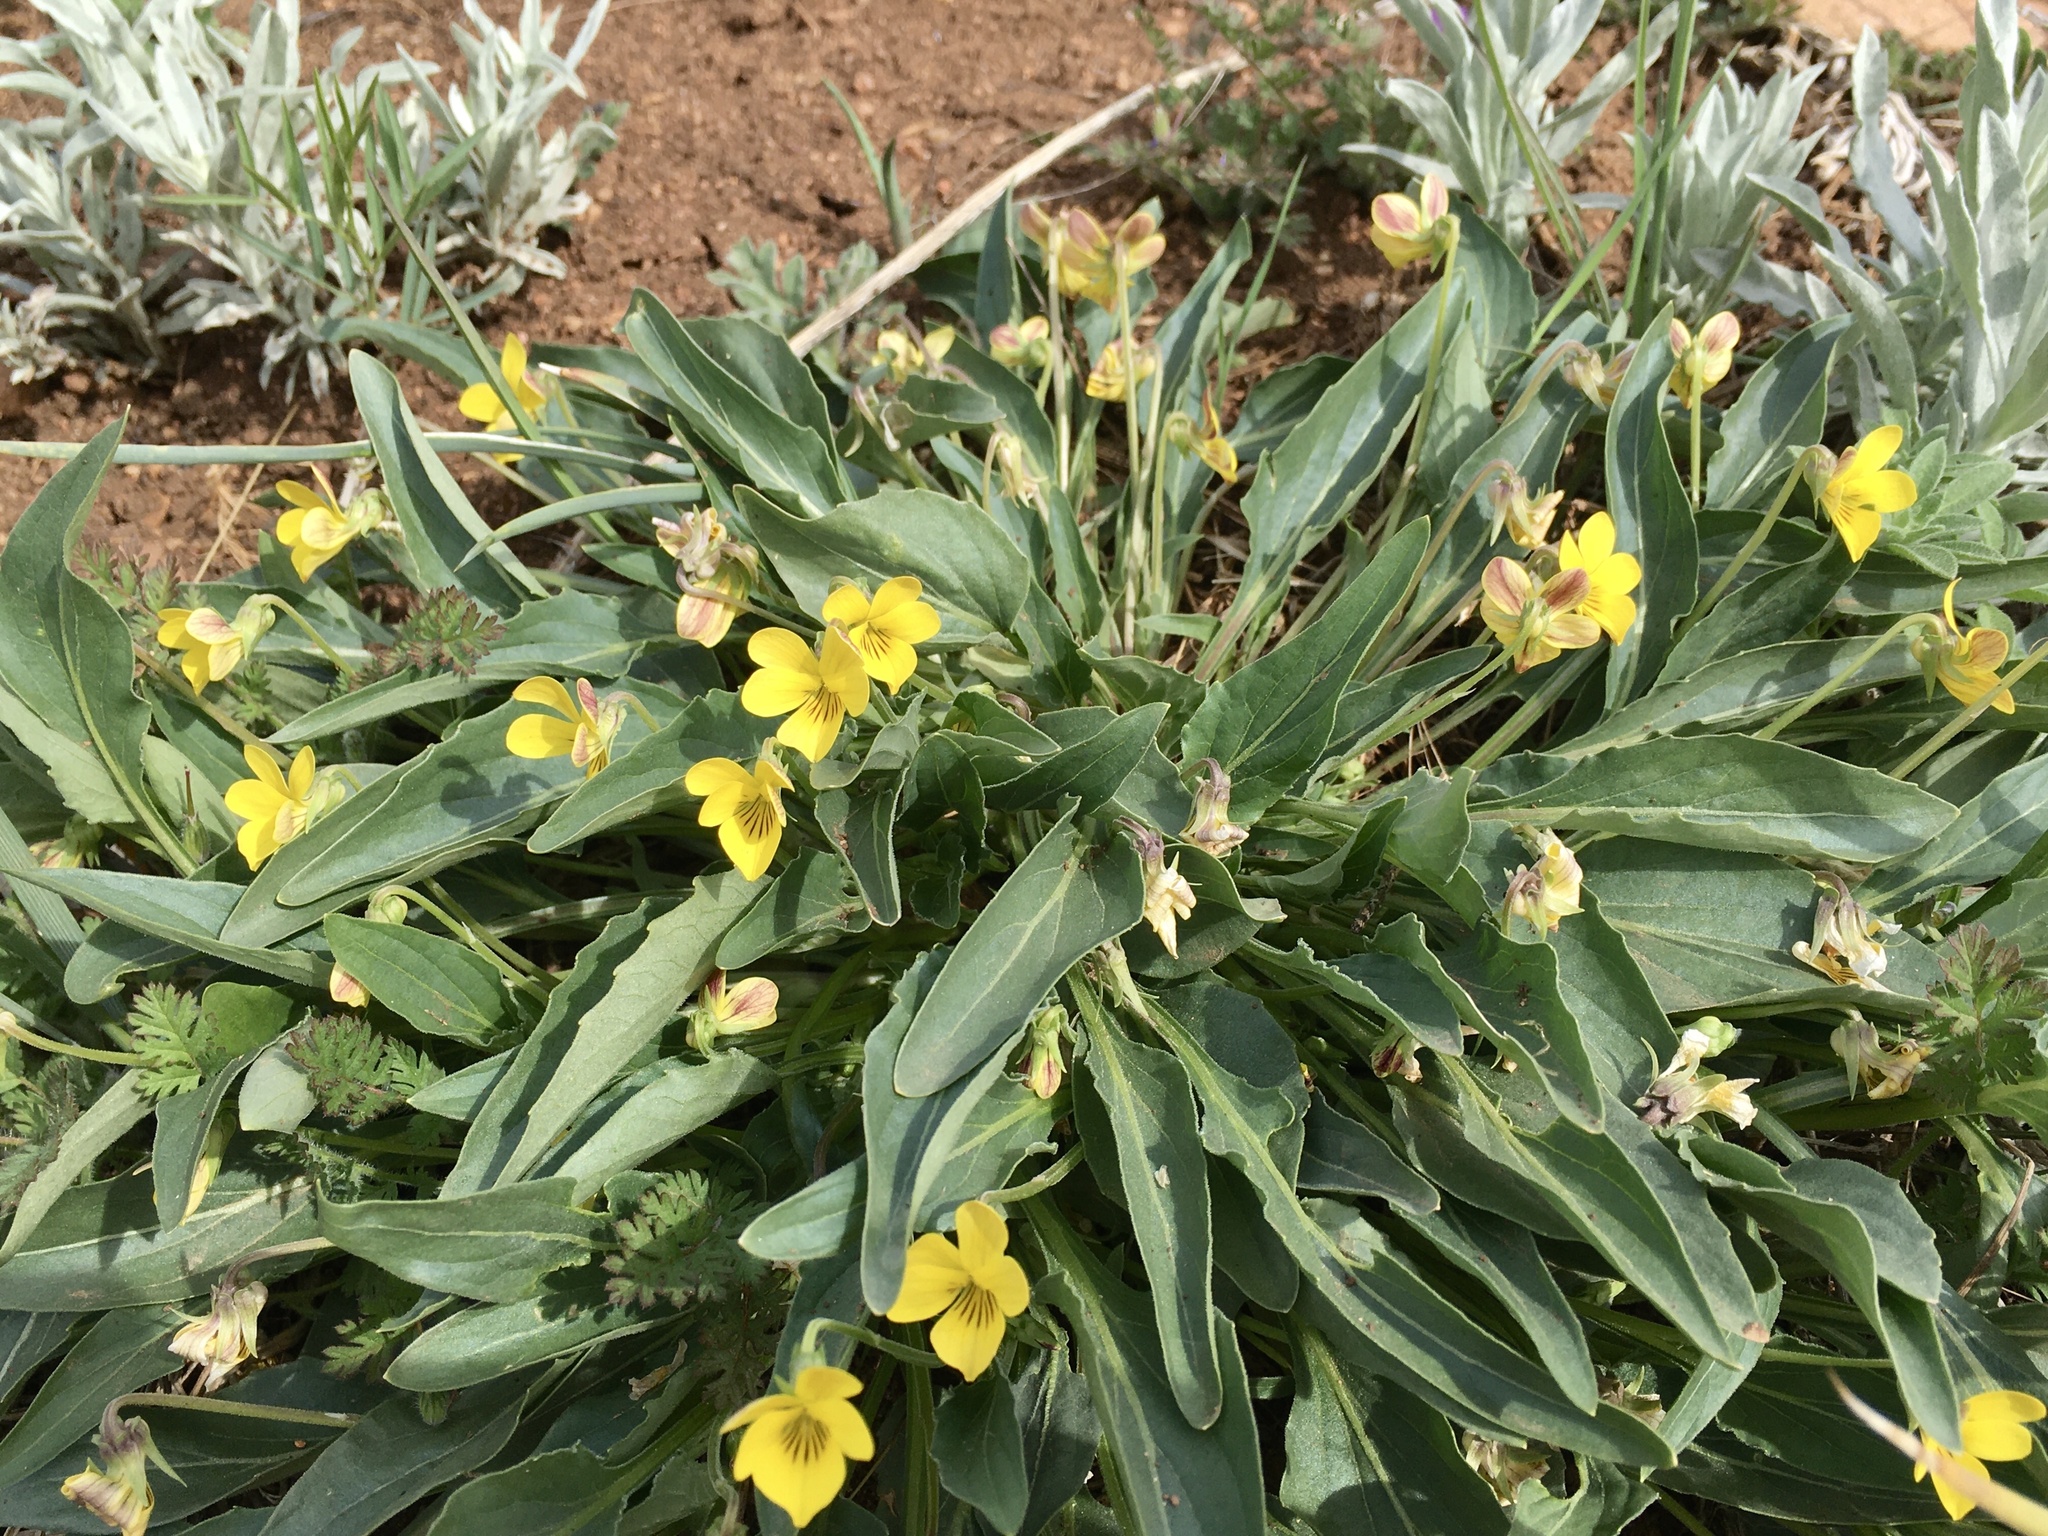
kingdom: Plantae
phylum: Tracheophyta
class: Magnoliopsida
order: Malpighiales
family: Violaceae
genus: Viola
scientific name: Viola nuttallii
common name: Yellow prairie violet
